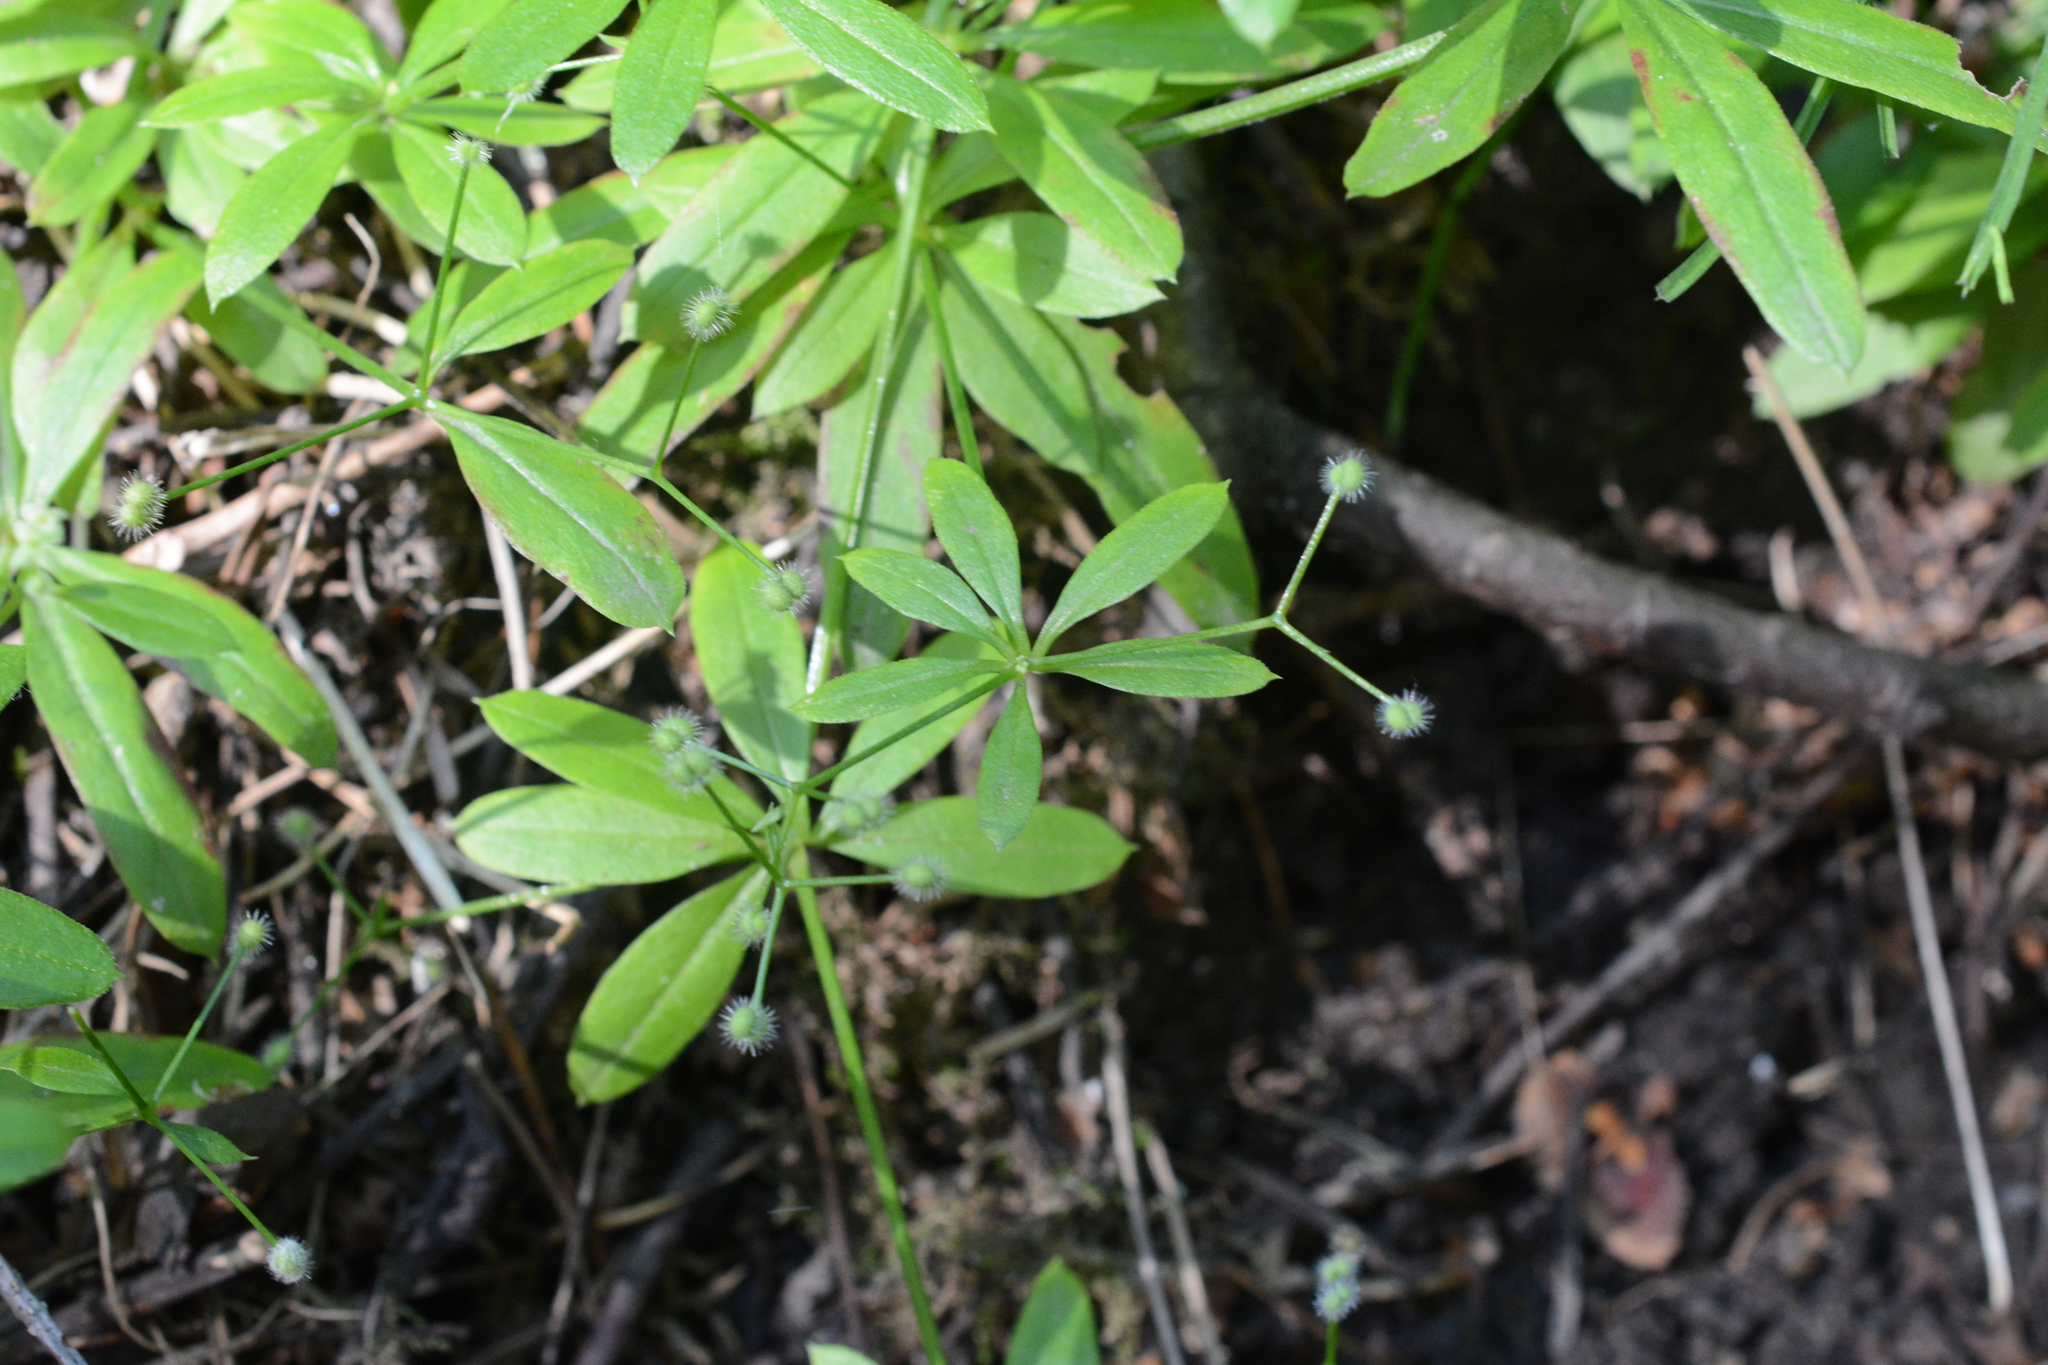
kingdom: Plantae
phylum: Tracheophyta
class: Magnoliopsida
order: Gentianales
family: Rubiaceae
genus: Galium
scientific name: Galium triflorum
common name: Fragrant bedstraw
